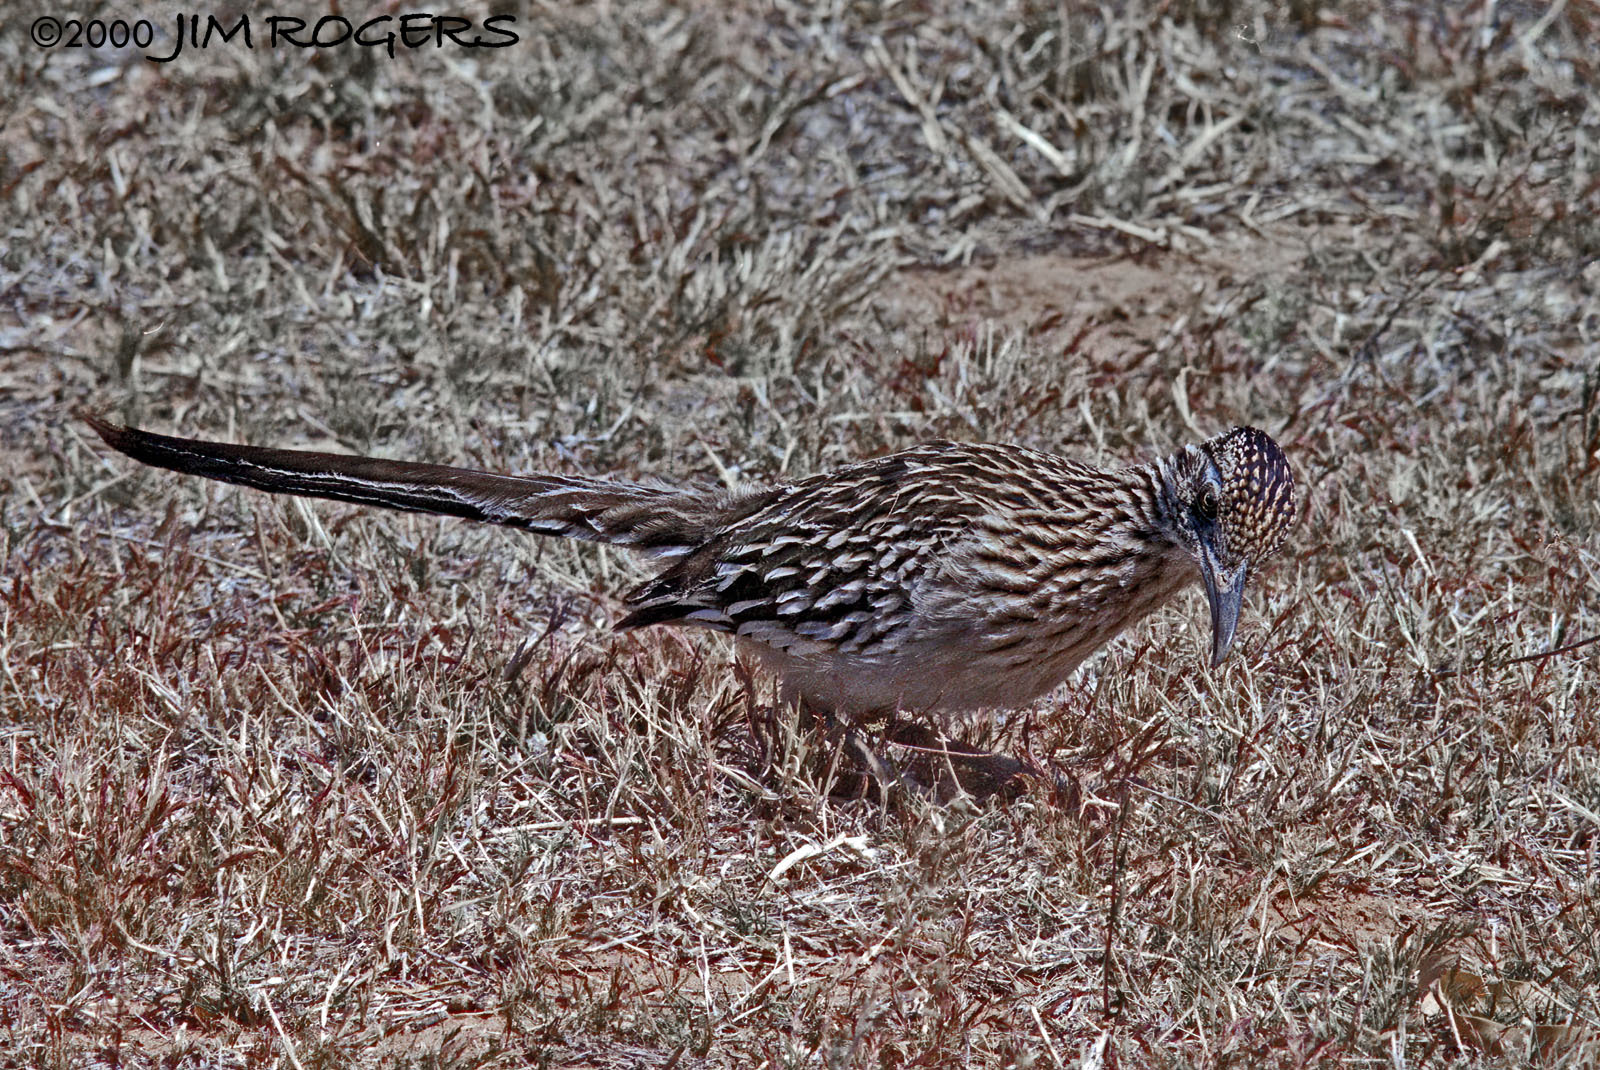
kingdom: Animalia
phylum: Chordata
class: Aves
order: Cuculiformes
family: Cuculidae
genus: Geococcyx
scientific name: Geococcyx californianus
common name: Greater roadrunner
